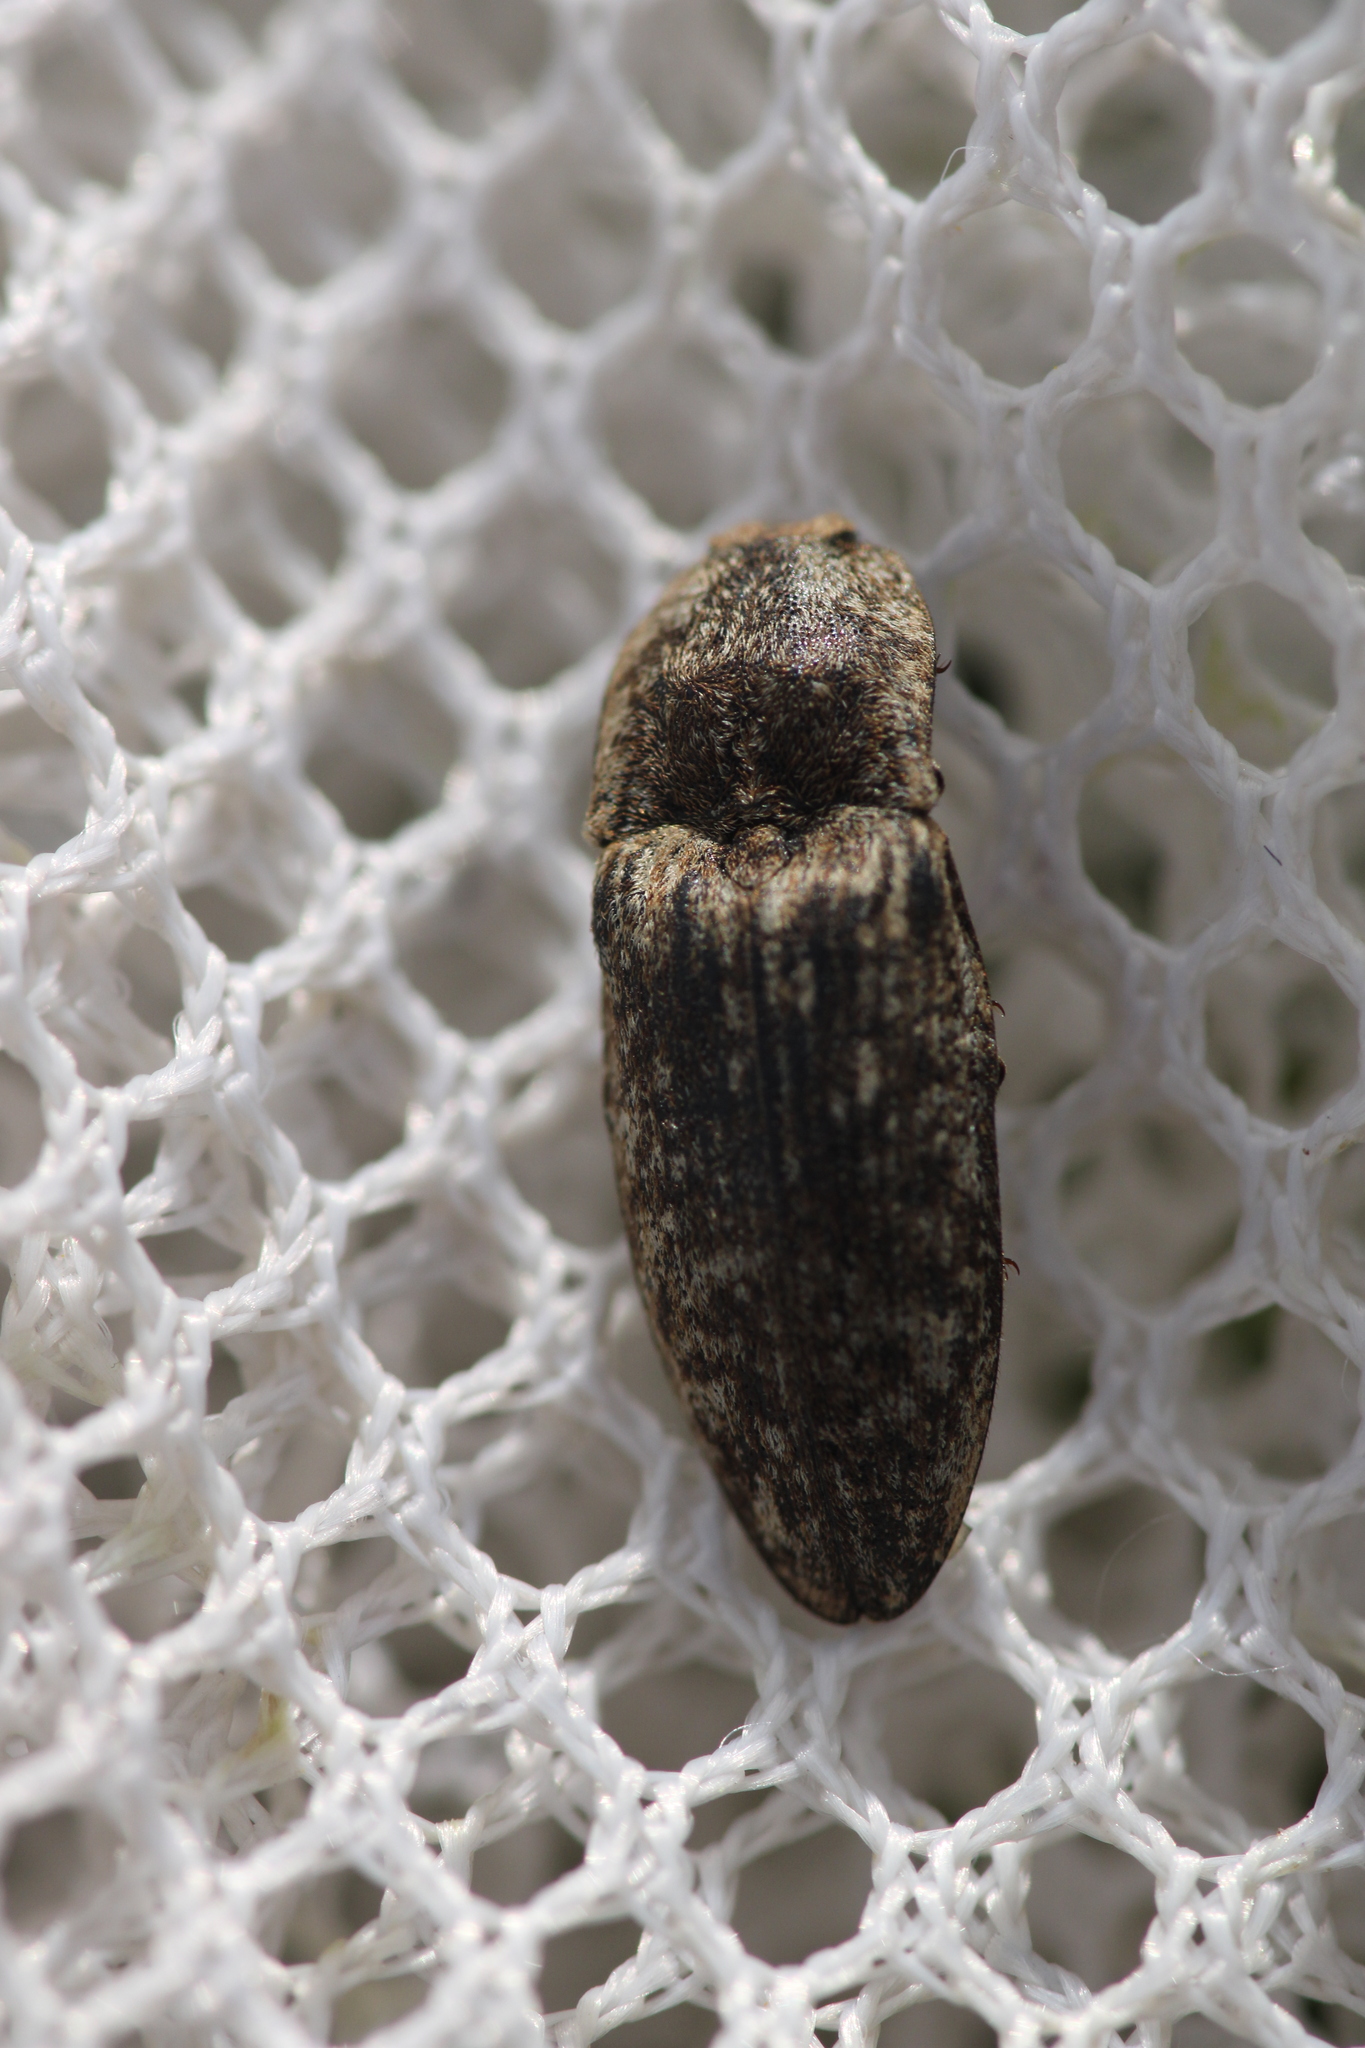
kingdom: Animalia
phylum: Arthropoda
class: Insecta
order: Coleoptera
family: Elateridae
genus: Agrypnus
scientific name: Agrypnus murinus
